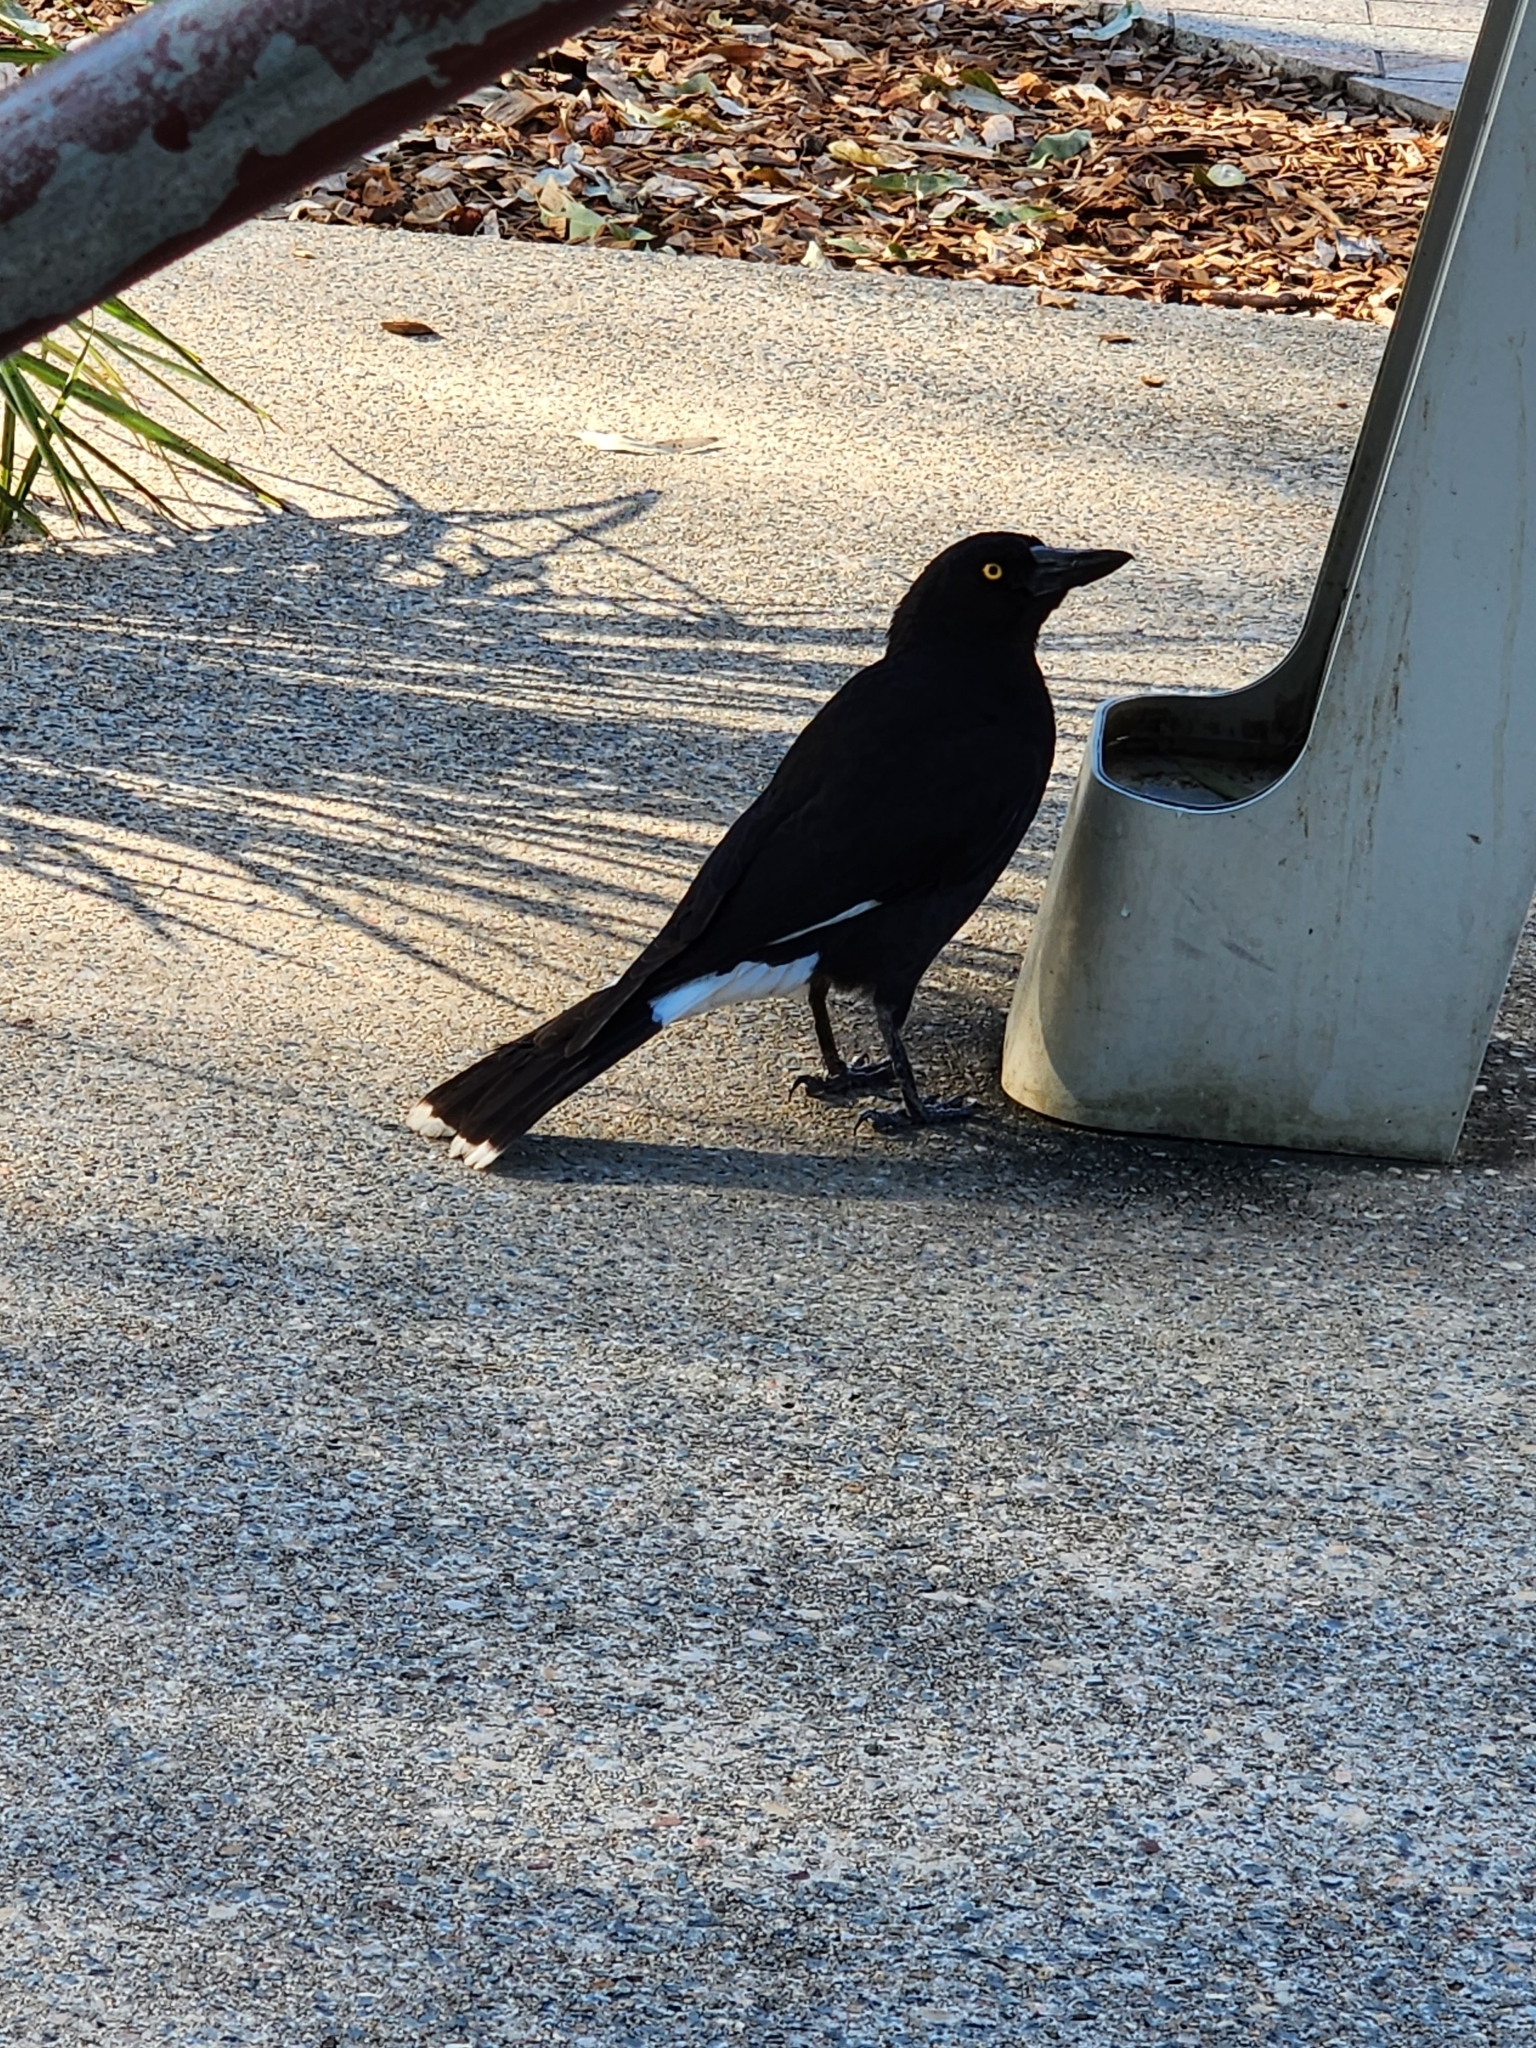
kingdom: Animalia
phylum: Chordata
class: Aves
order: Passeriformes
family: Cracticidae
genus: Strepera
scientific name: Strepera graculina
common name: Pied currawong
